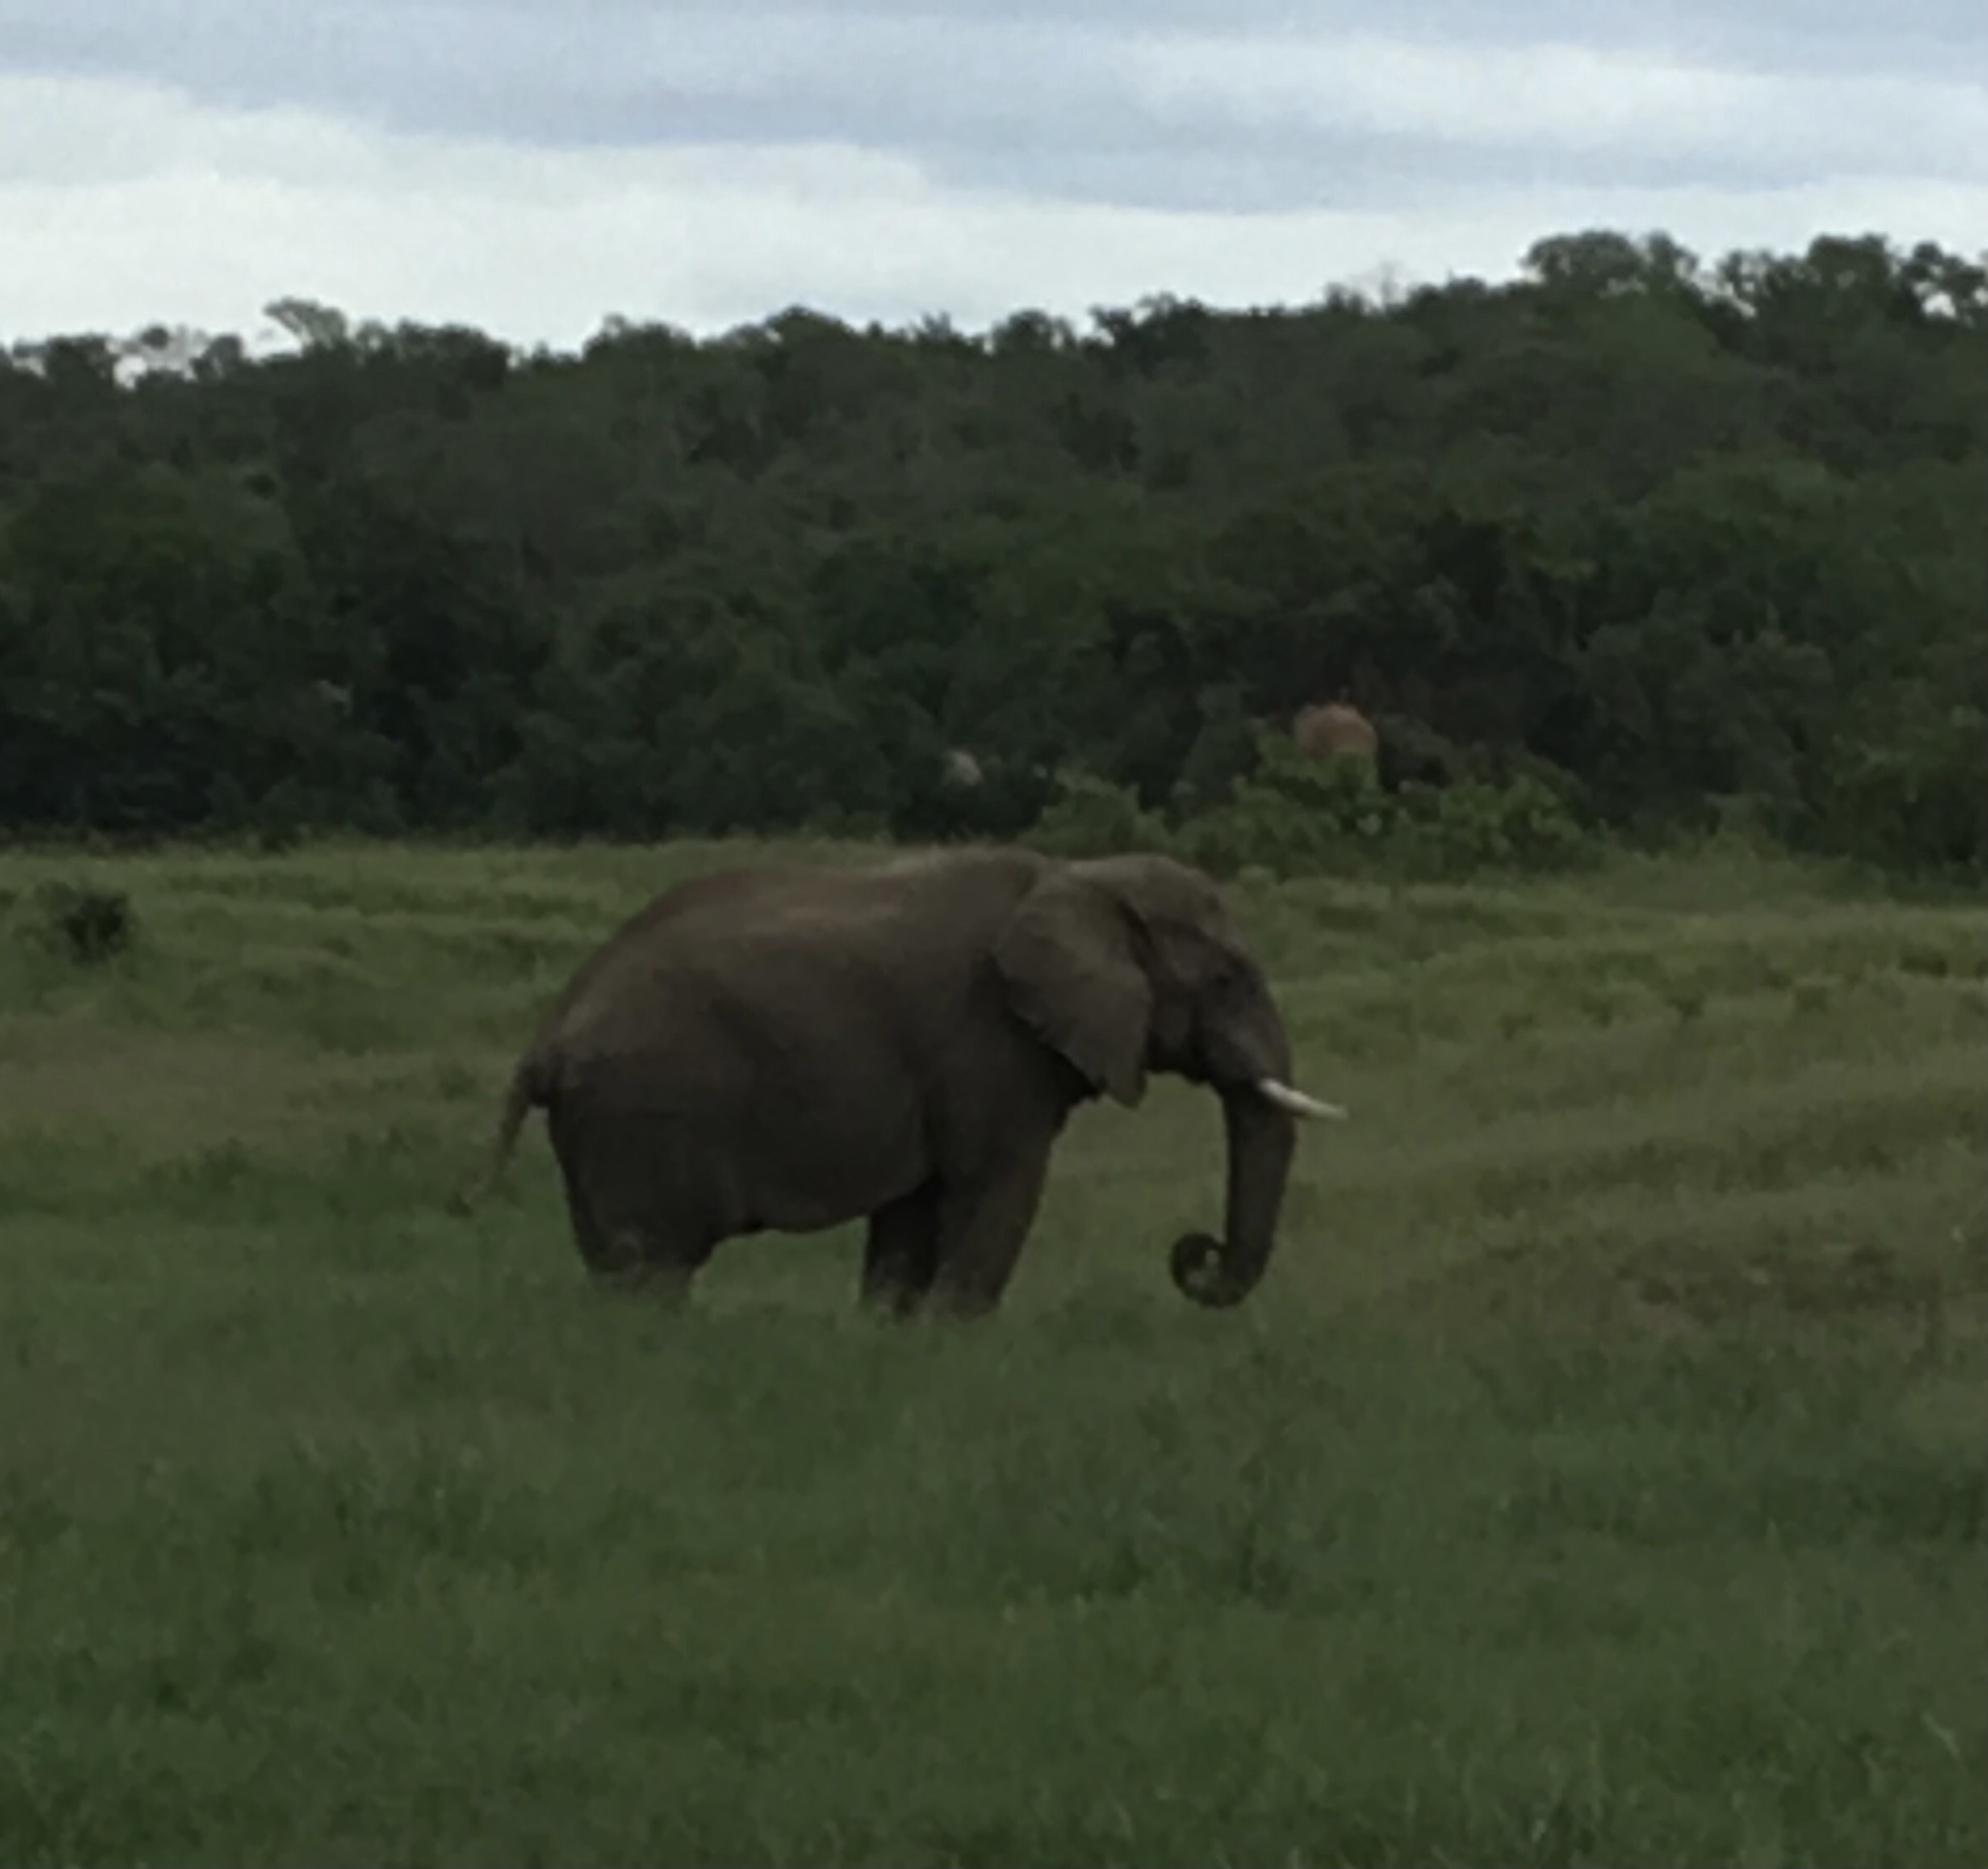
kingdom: Animalia
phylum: Chordata
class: Mammalia
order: Proboscidea
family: Elephantidae
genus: Loxodonta
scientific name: Loxodonta africana
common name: African elephant
